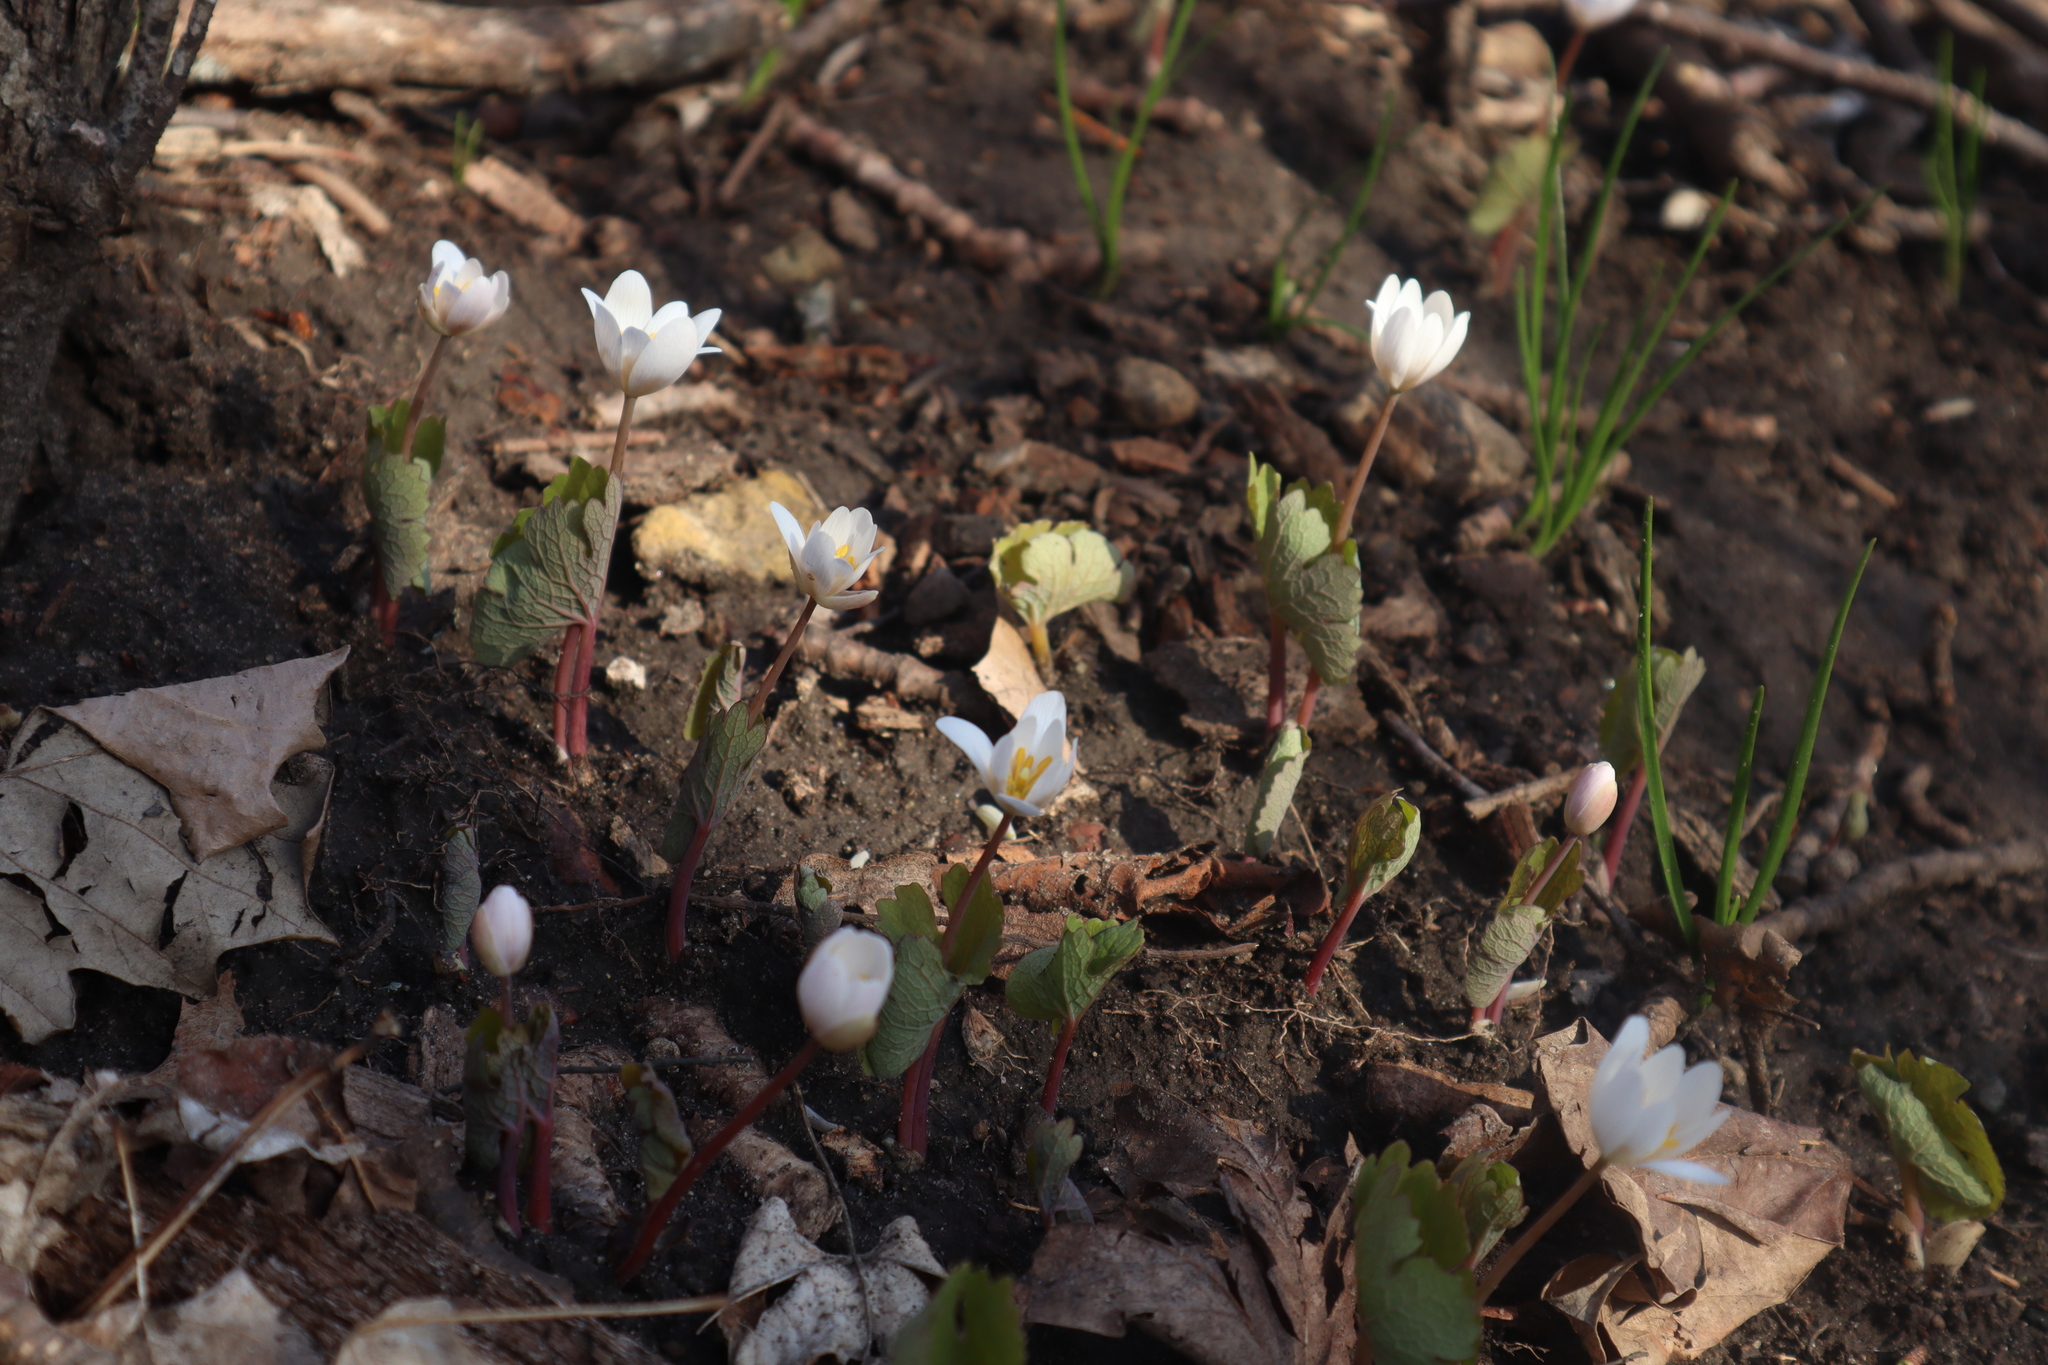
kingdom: Plantae
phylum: Tracheophyta
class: Magnoliopsida
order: Ranunculales
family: Papaveraceae
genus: Sanguinaria
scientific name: Sanguinaria canadensis
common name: Bloodroot
